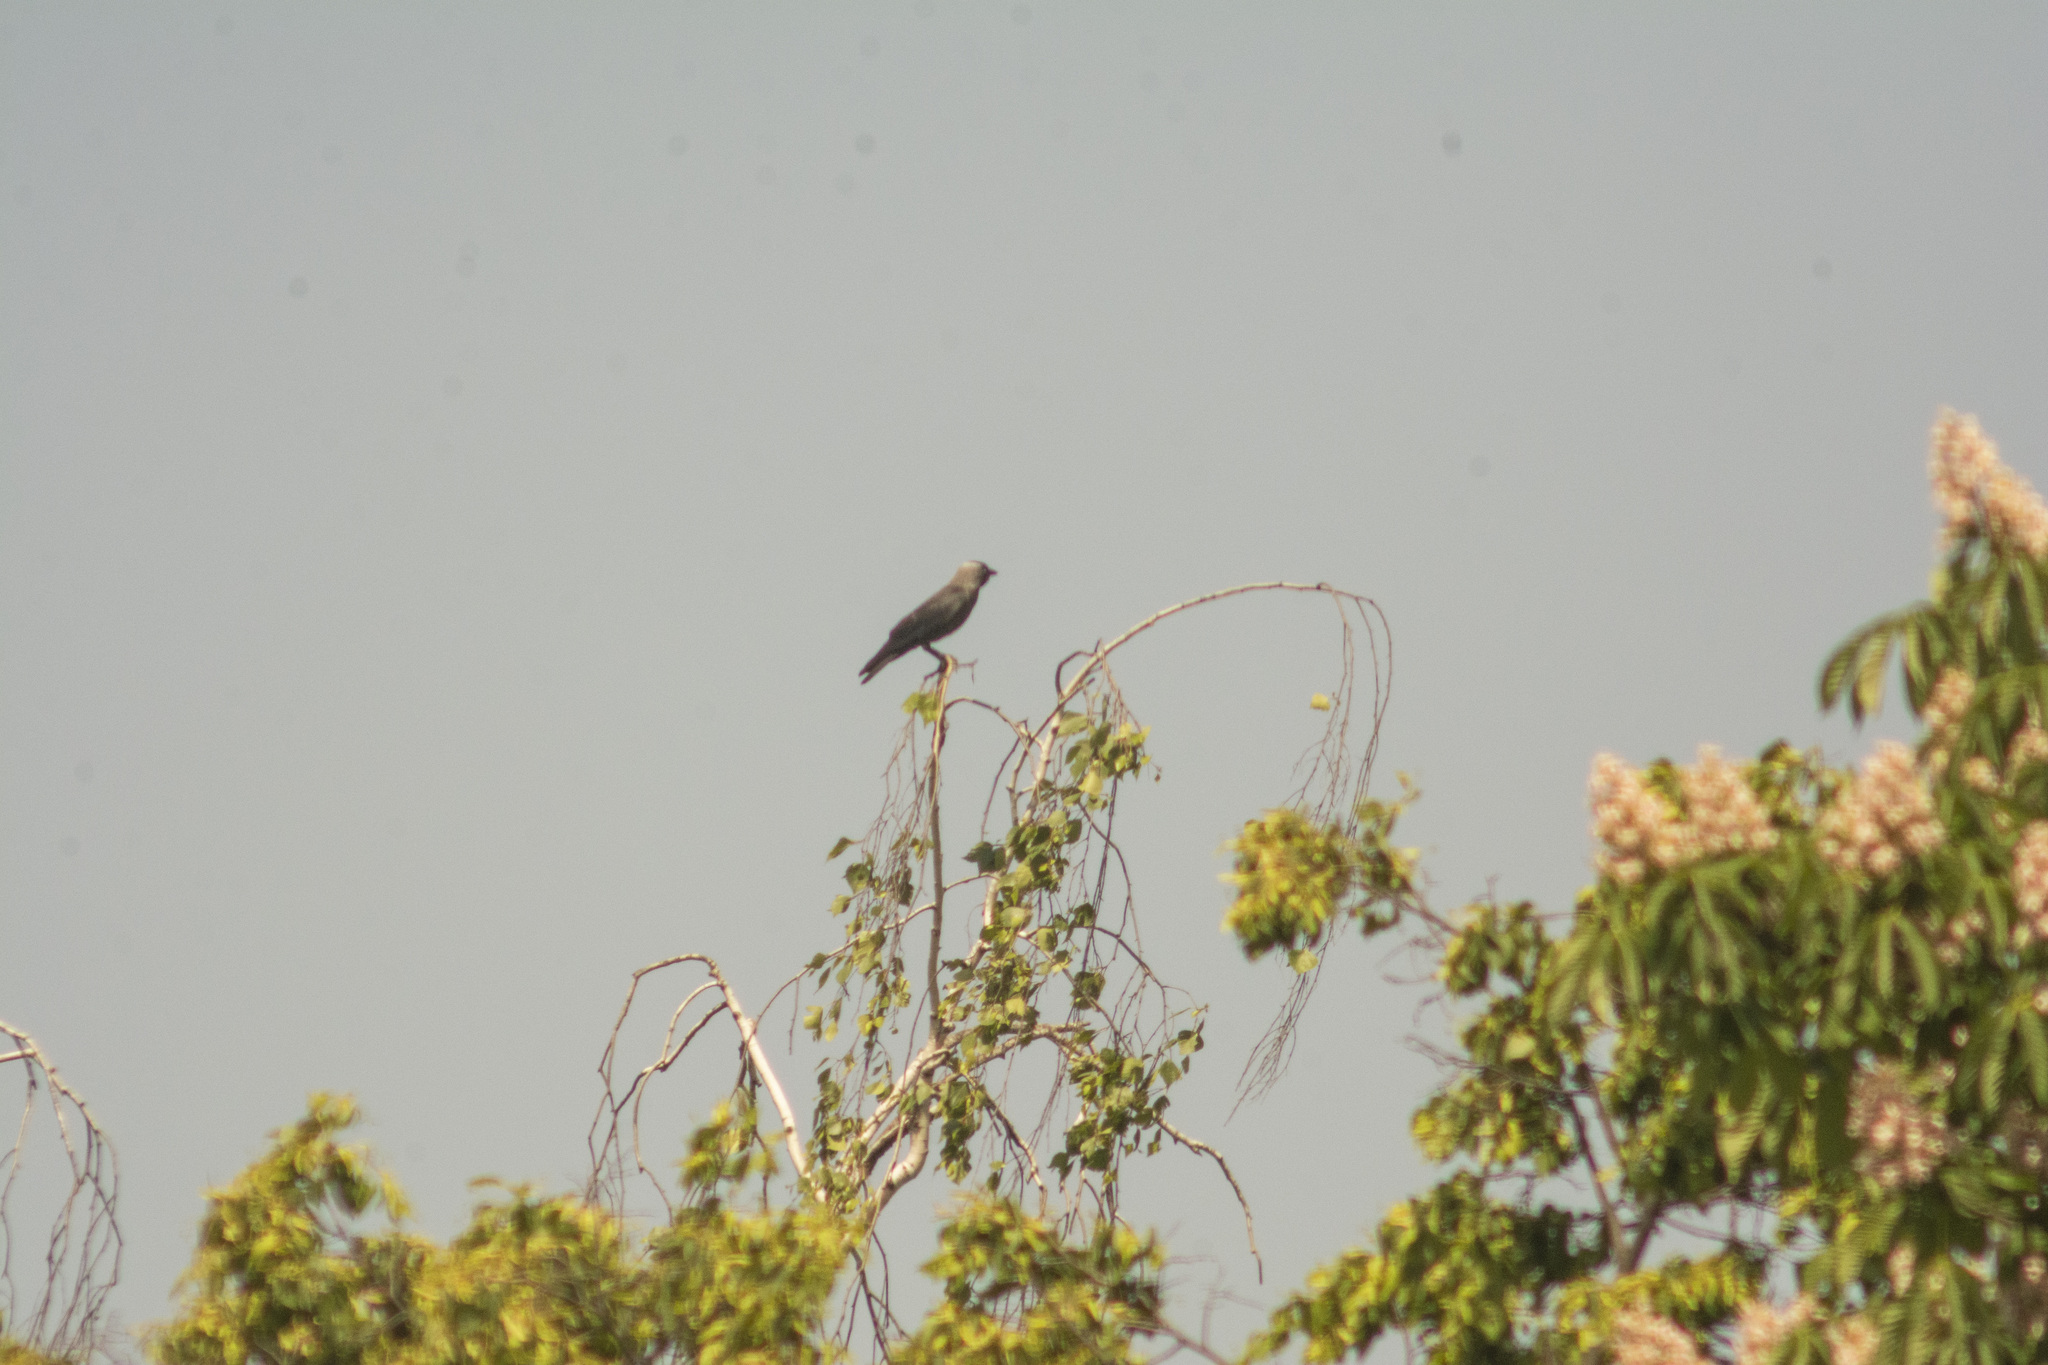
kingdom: Animalia
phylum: Chordata
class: Aves
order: Passeriformes
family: Corvidae
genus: Coloeus
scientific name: Coloeus monedula
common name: Western jackdaw
